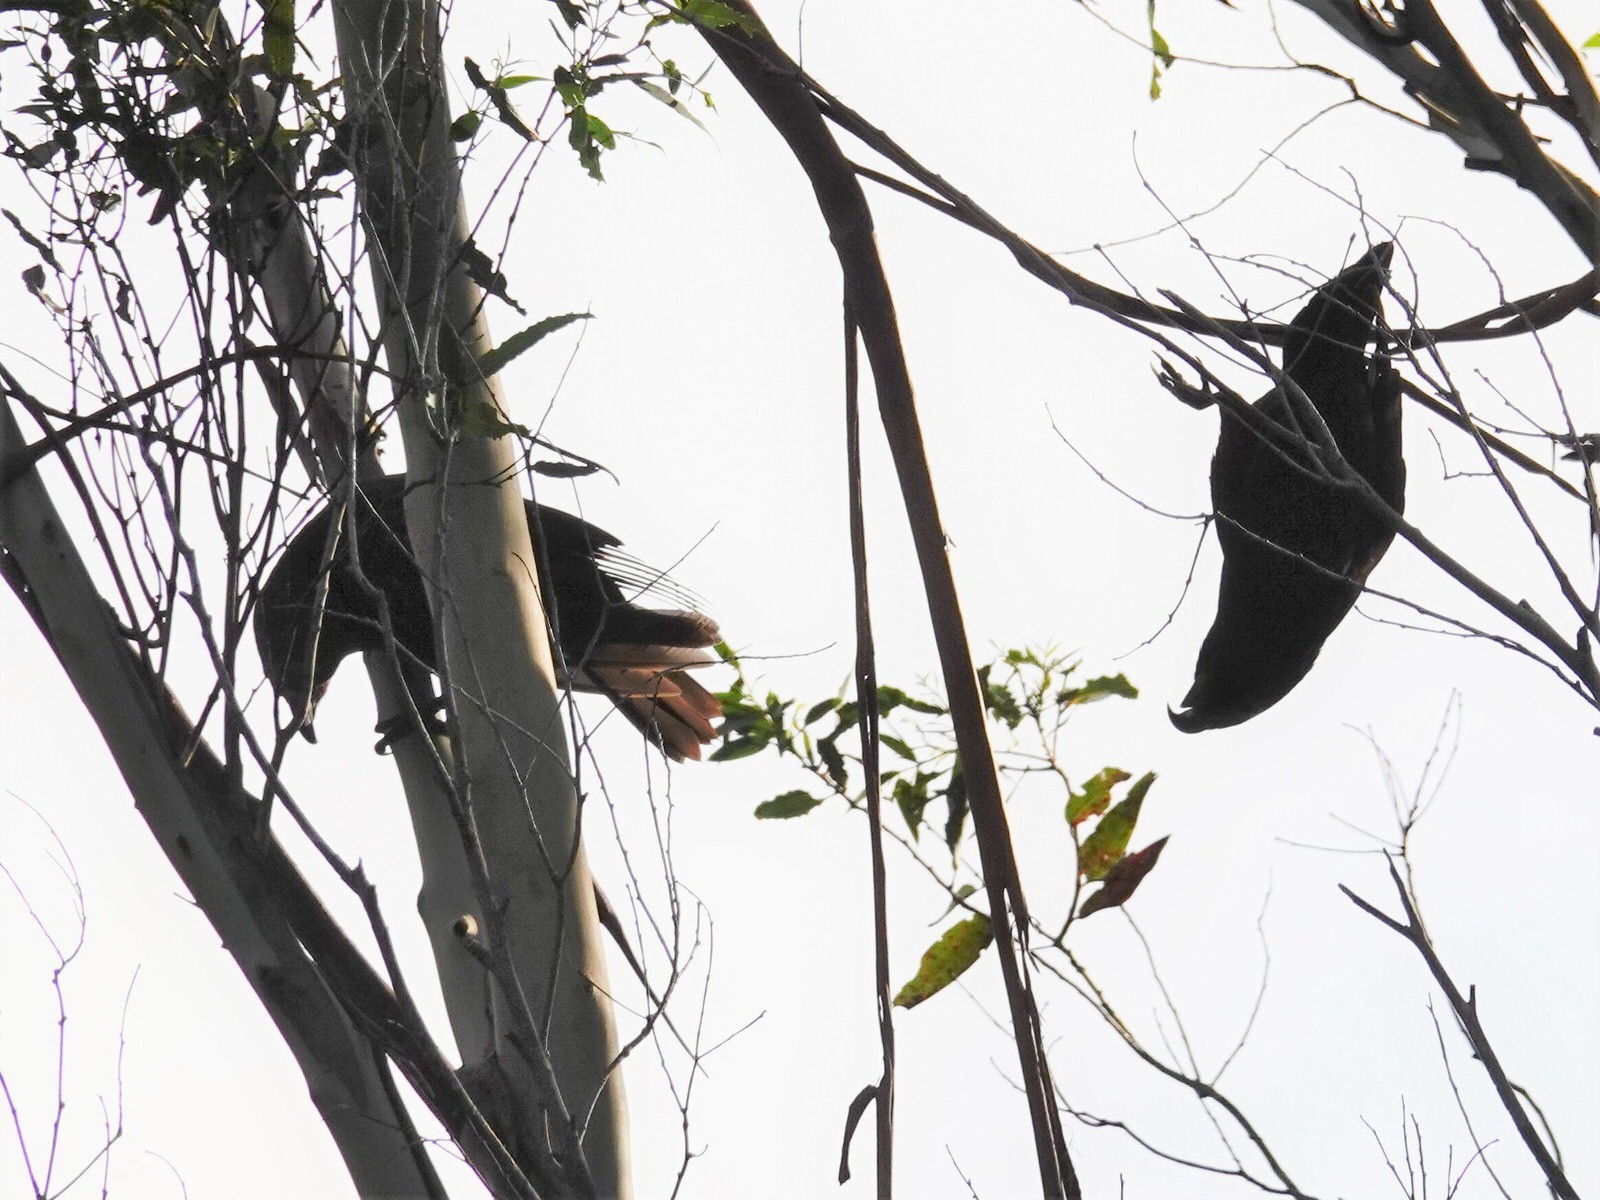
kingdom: Animalia
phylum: Chordata
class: Aves
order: Psittaciformes
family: Psittacidae
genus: Nestor
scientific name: Nestor meridionalis
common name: New zealand kaka
